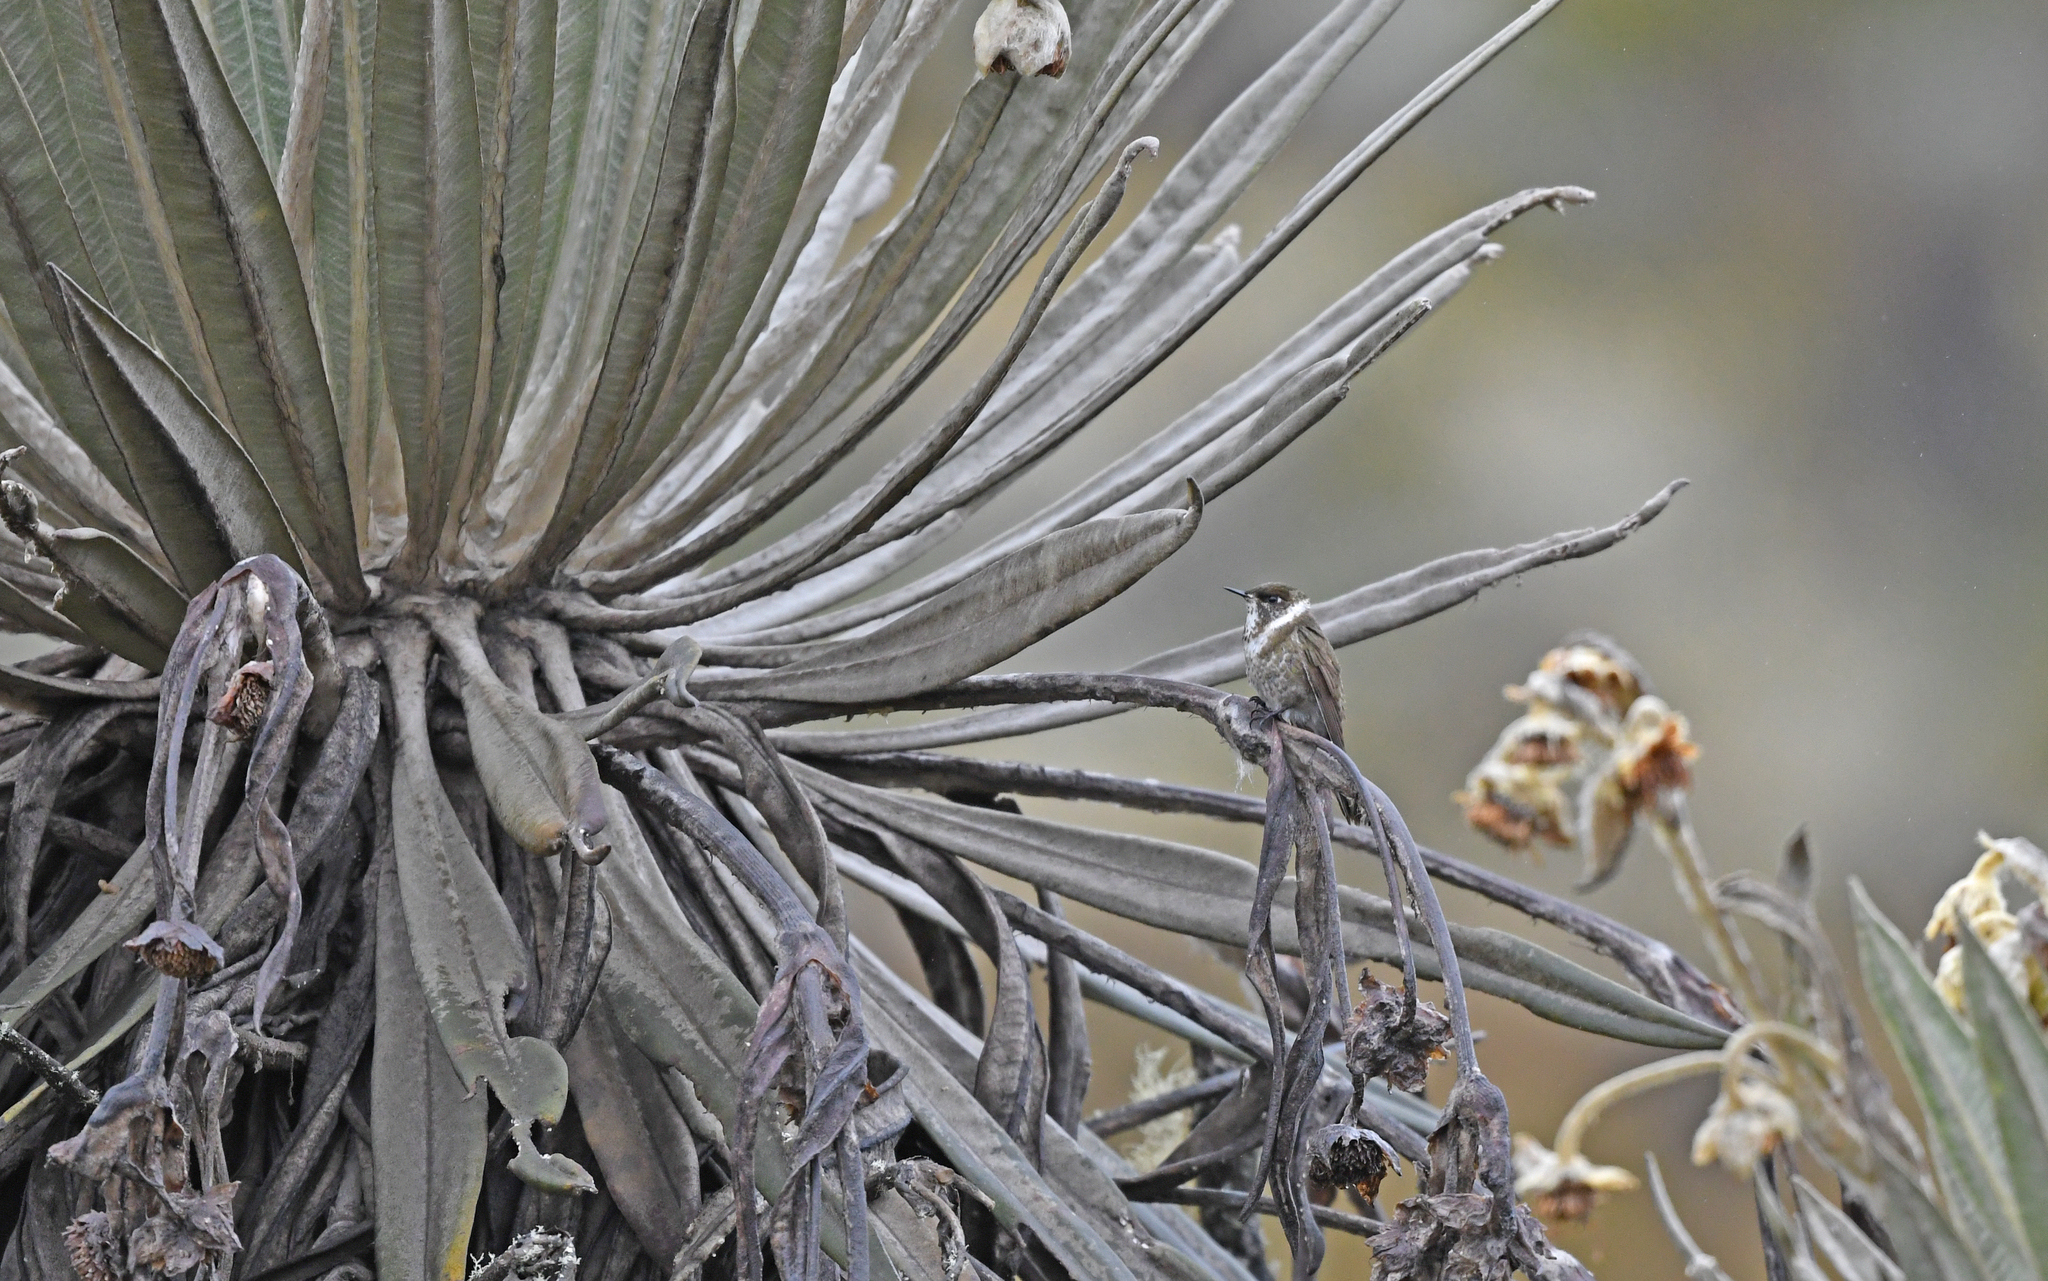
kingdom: Animalia
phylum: Chordata
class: Aves
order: Apodiformes
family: Trochilidae
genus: Oxypogon
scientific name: Oxypogon guerinii
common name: Bearded helmetcrest
